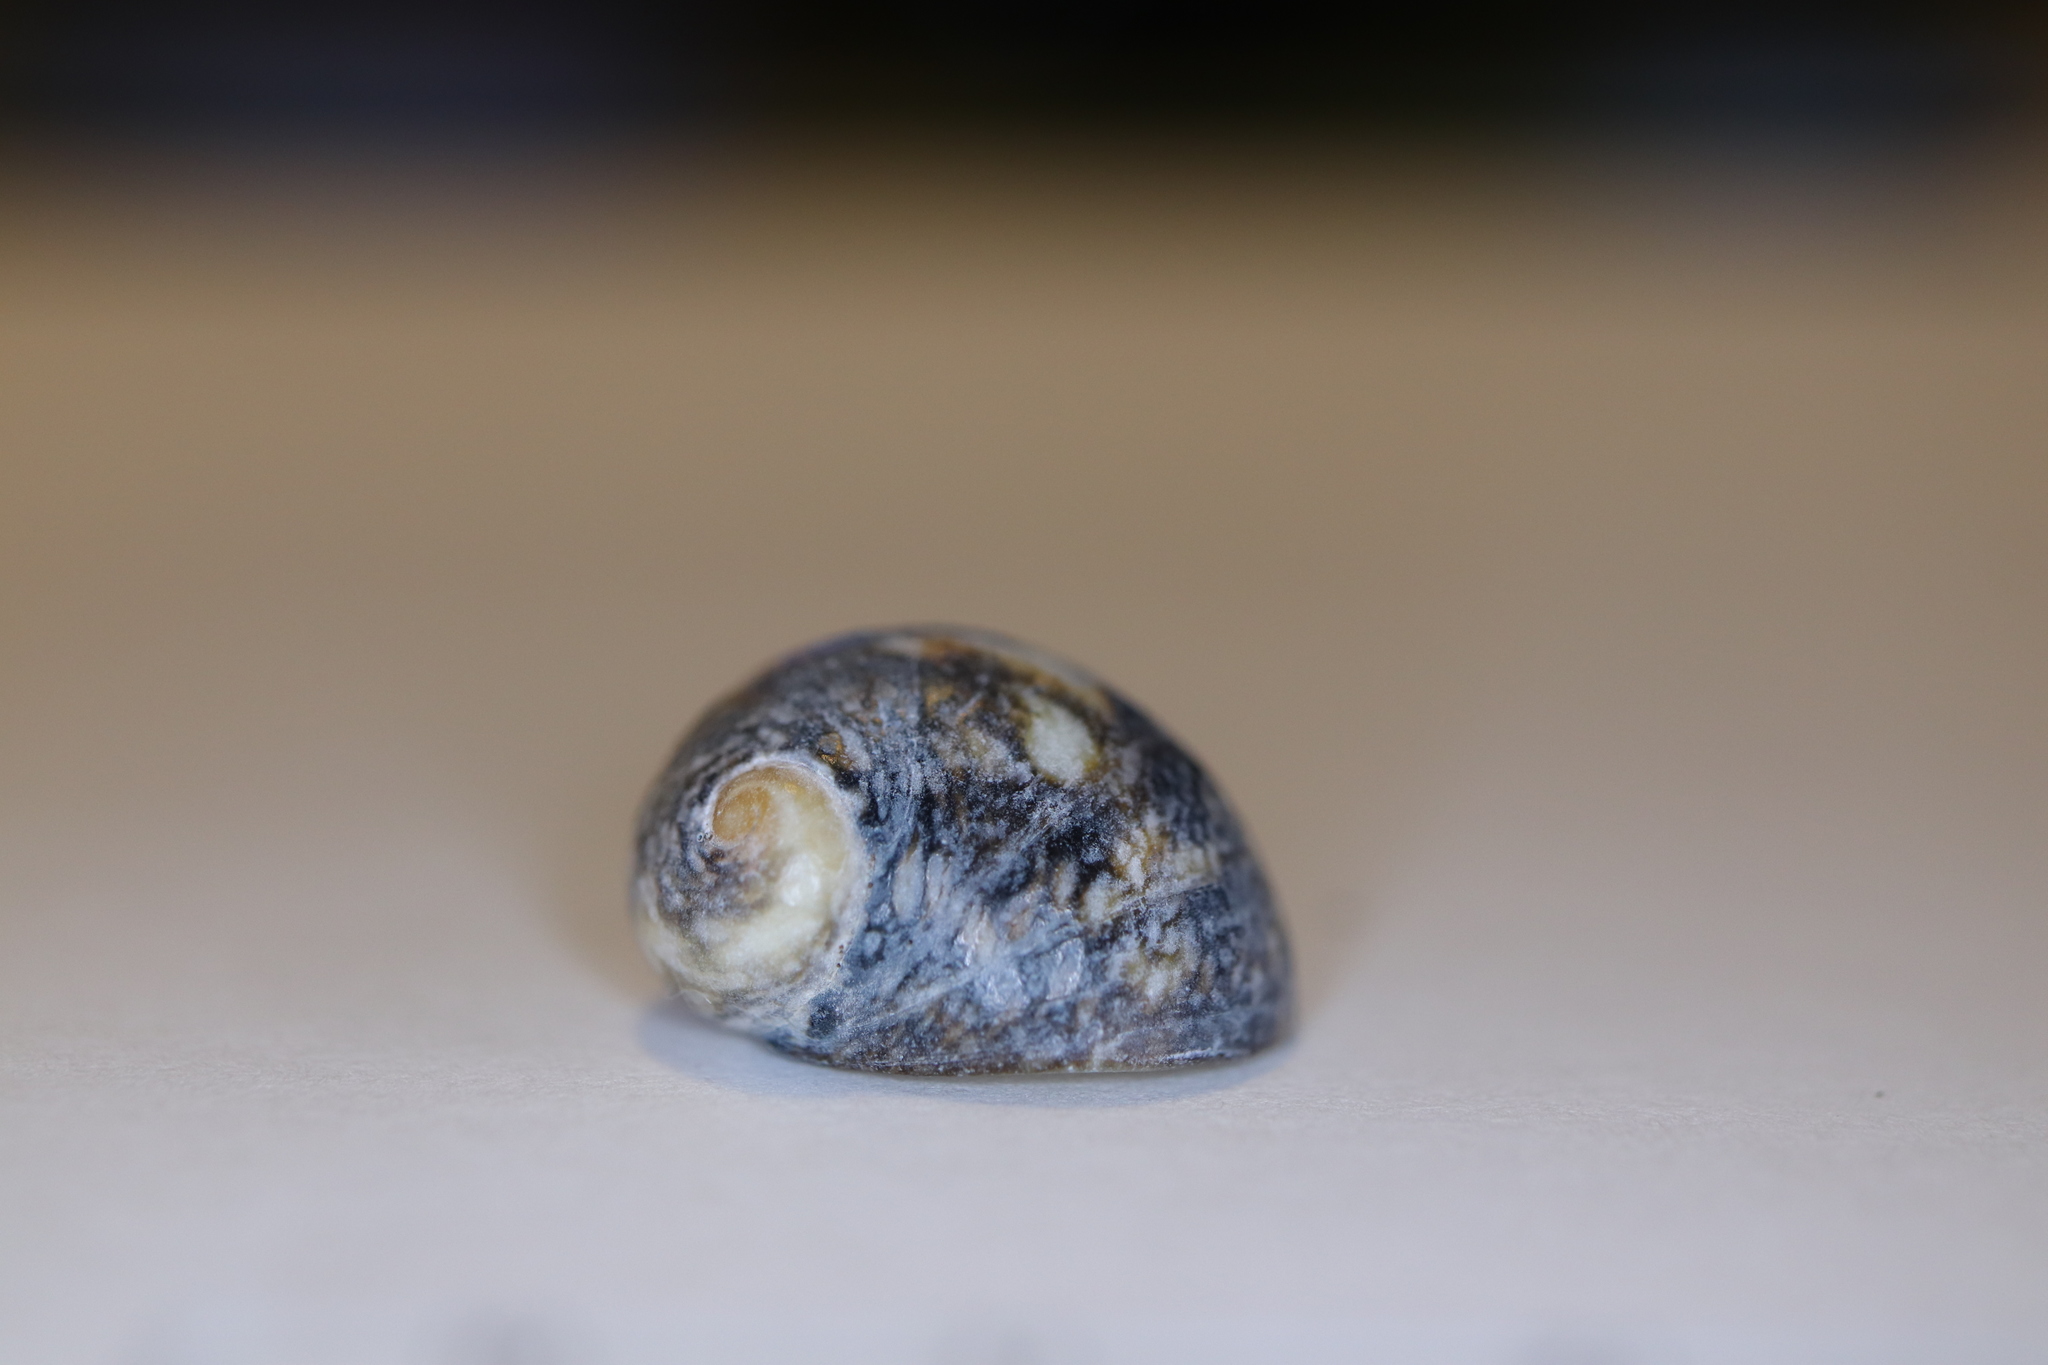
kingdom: Animalia
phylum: Mollusca
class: Gastropoda
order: Cycloneritida
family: Neritidae
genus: Nerita
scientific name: Nerita japonica
